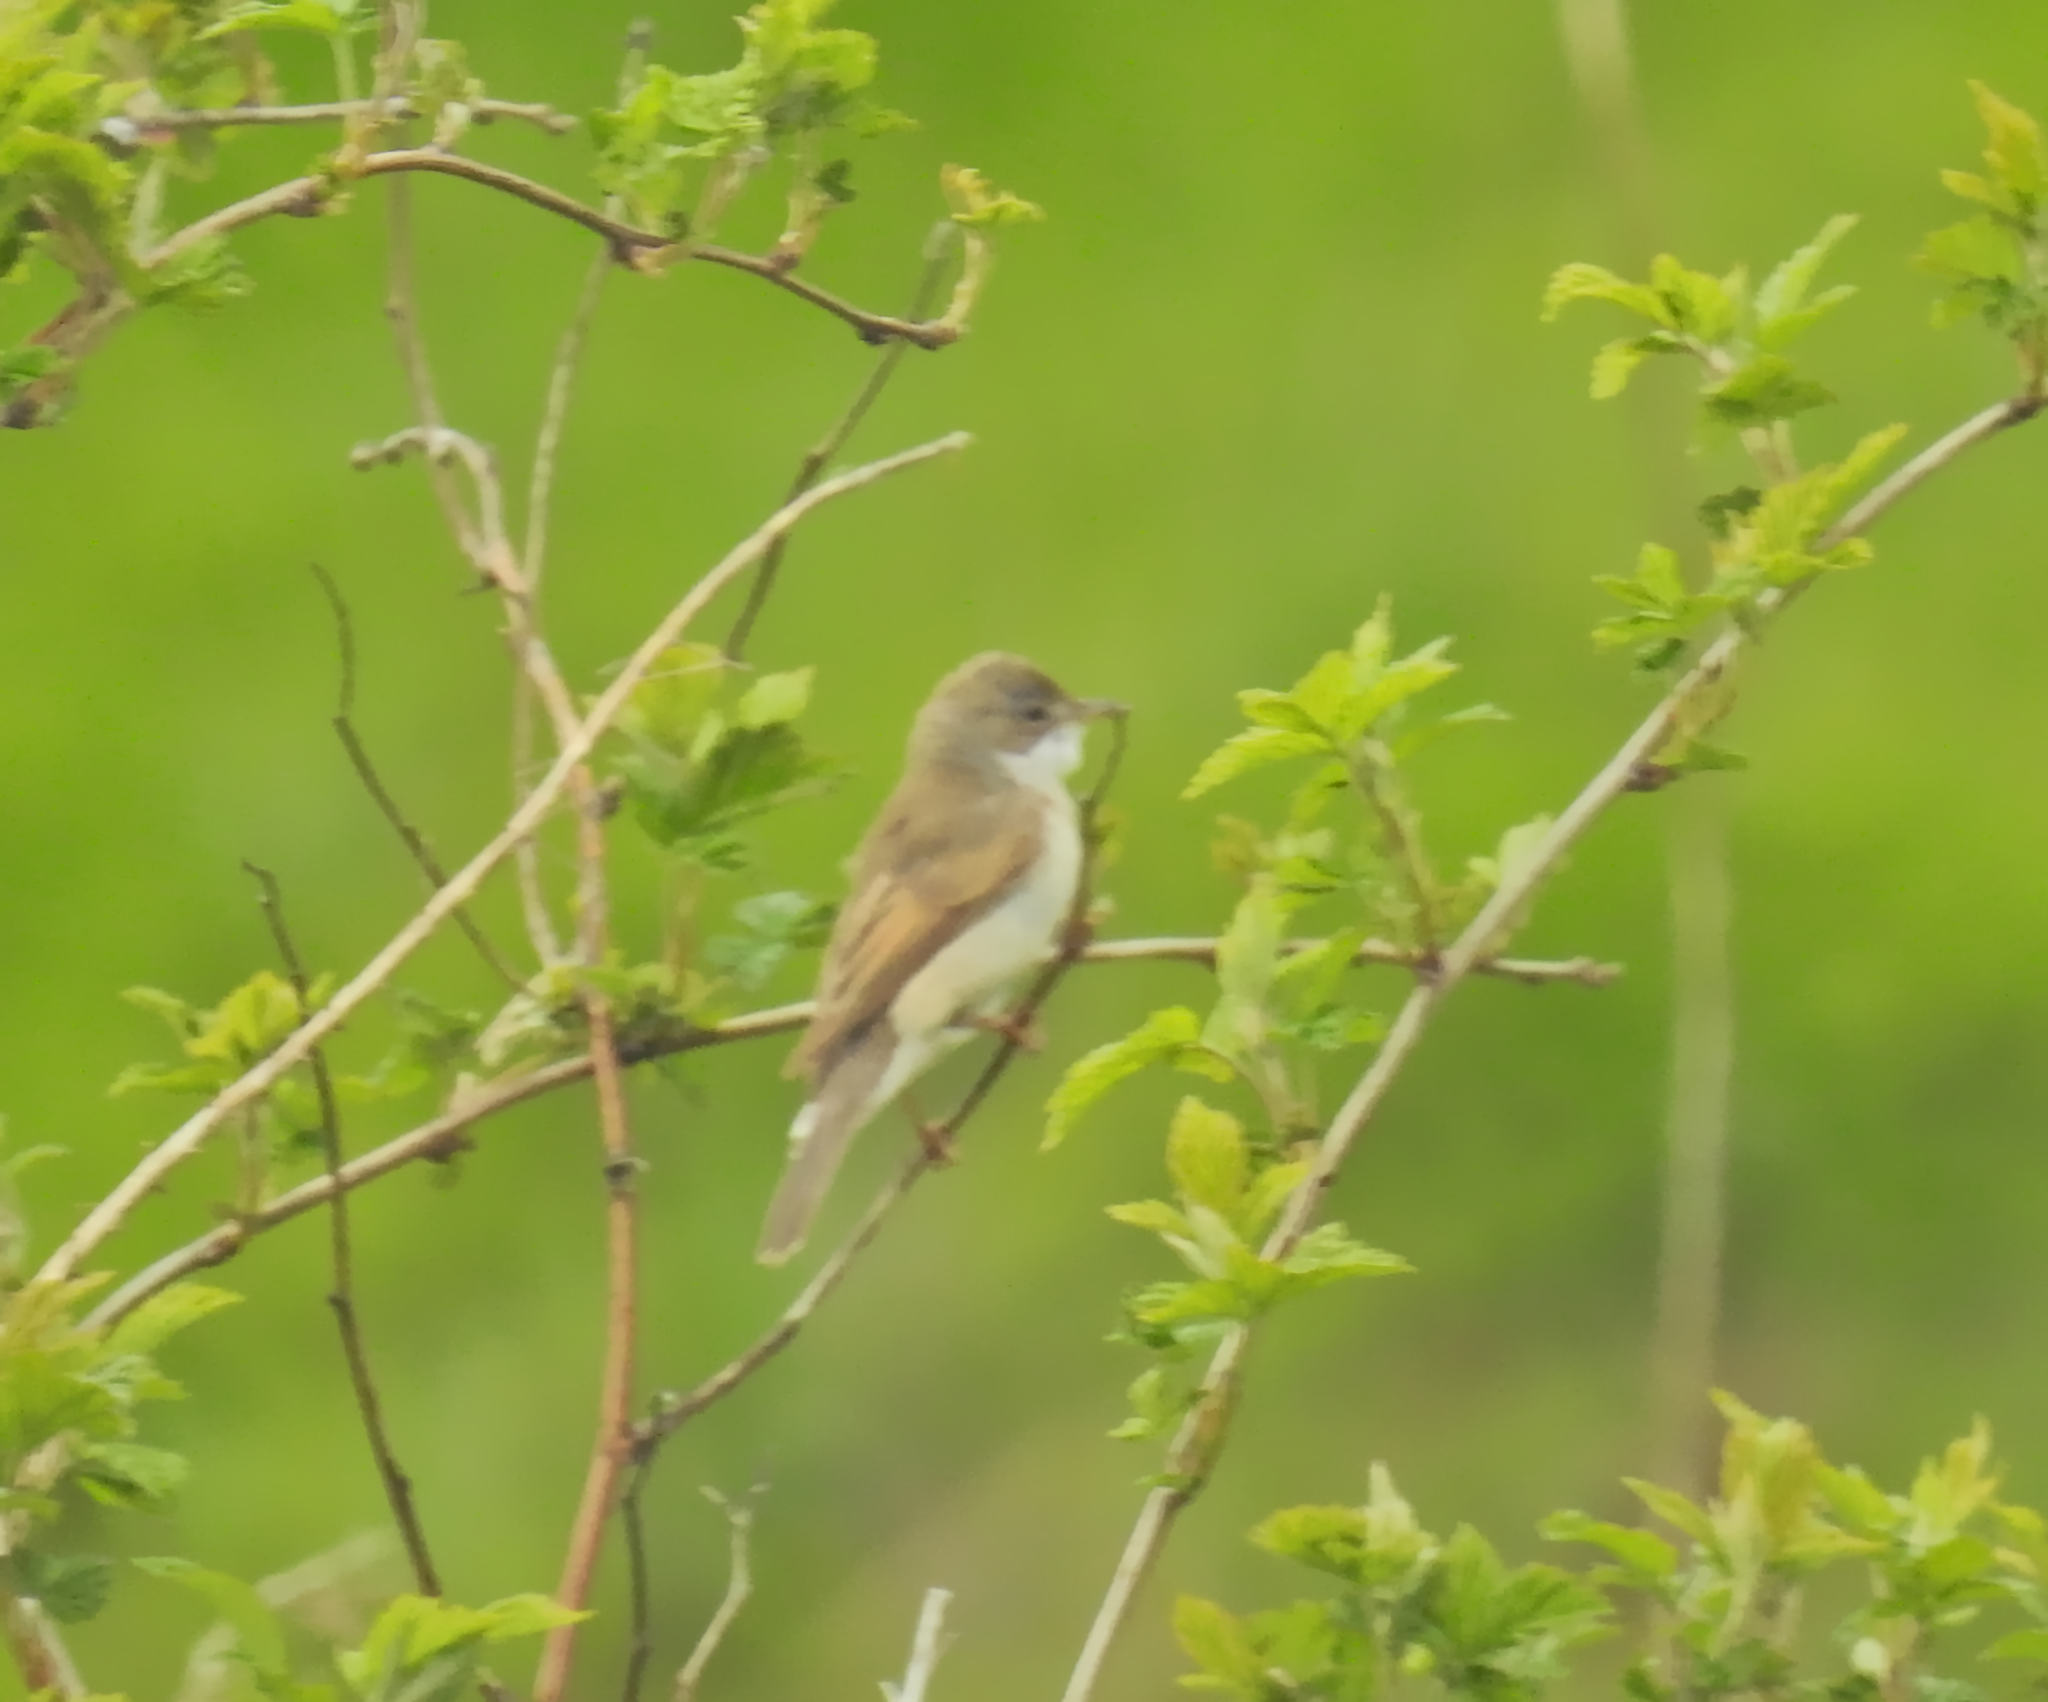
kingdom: Animalia
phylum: Chordata
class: Aves
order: Passeriformes
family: Sylviidae
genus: Sylvia
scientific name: Sylvia communis
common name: Common whitethroat
